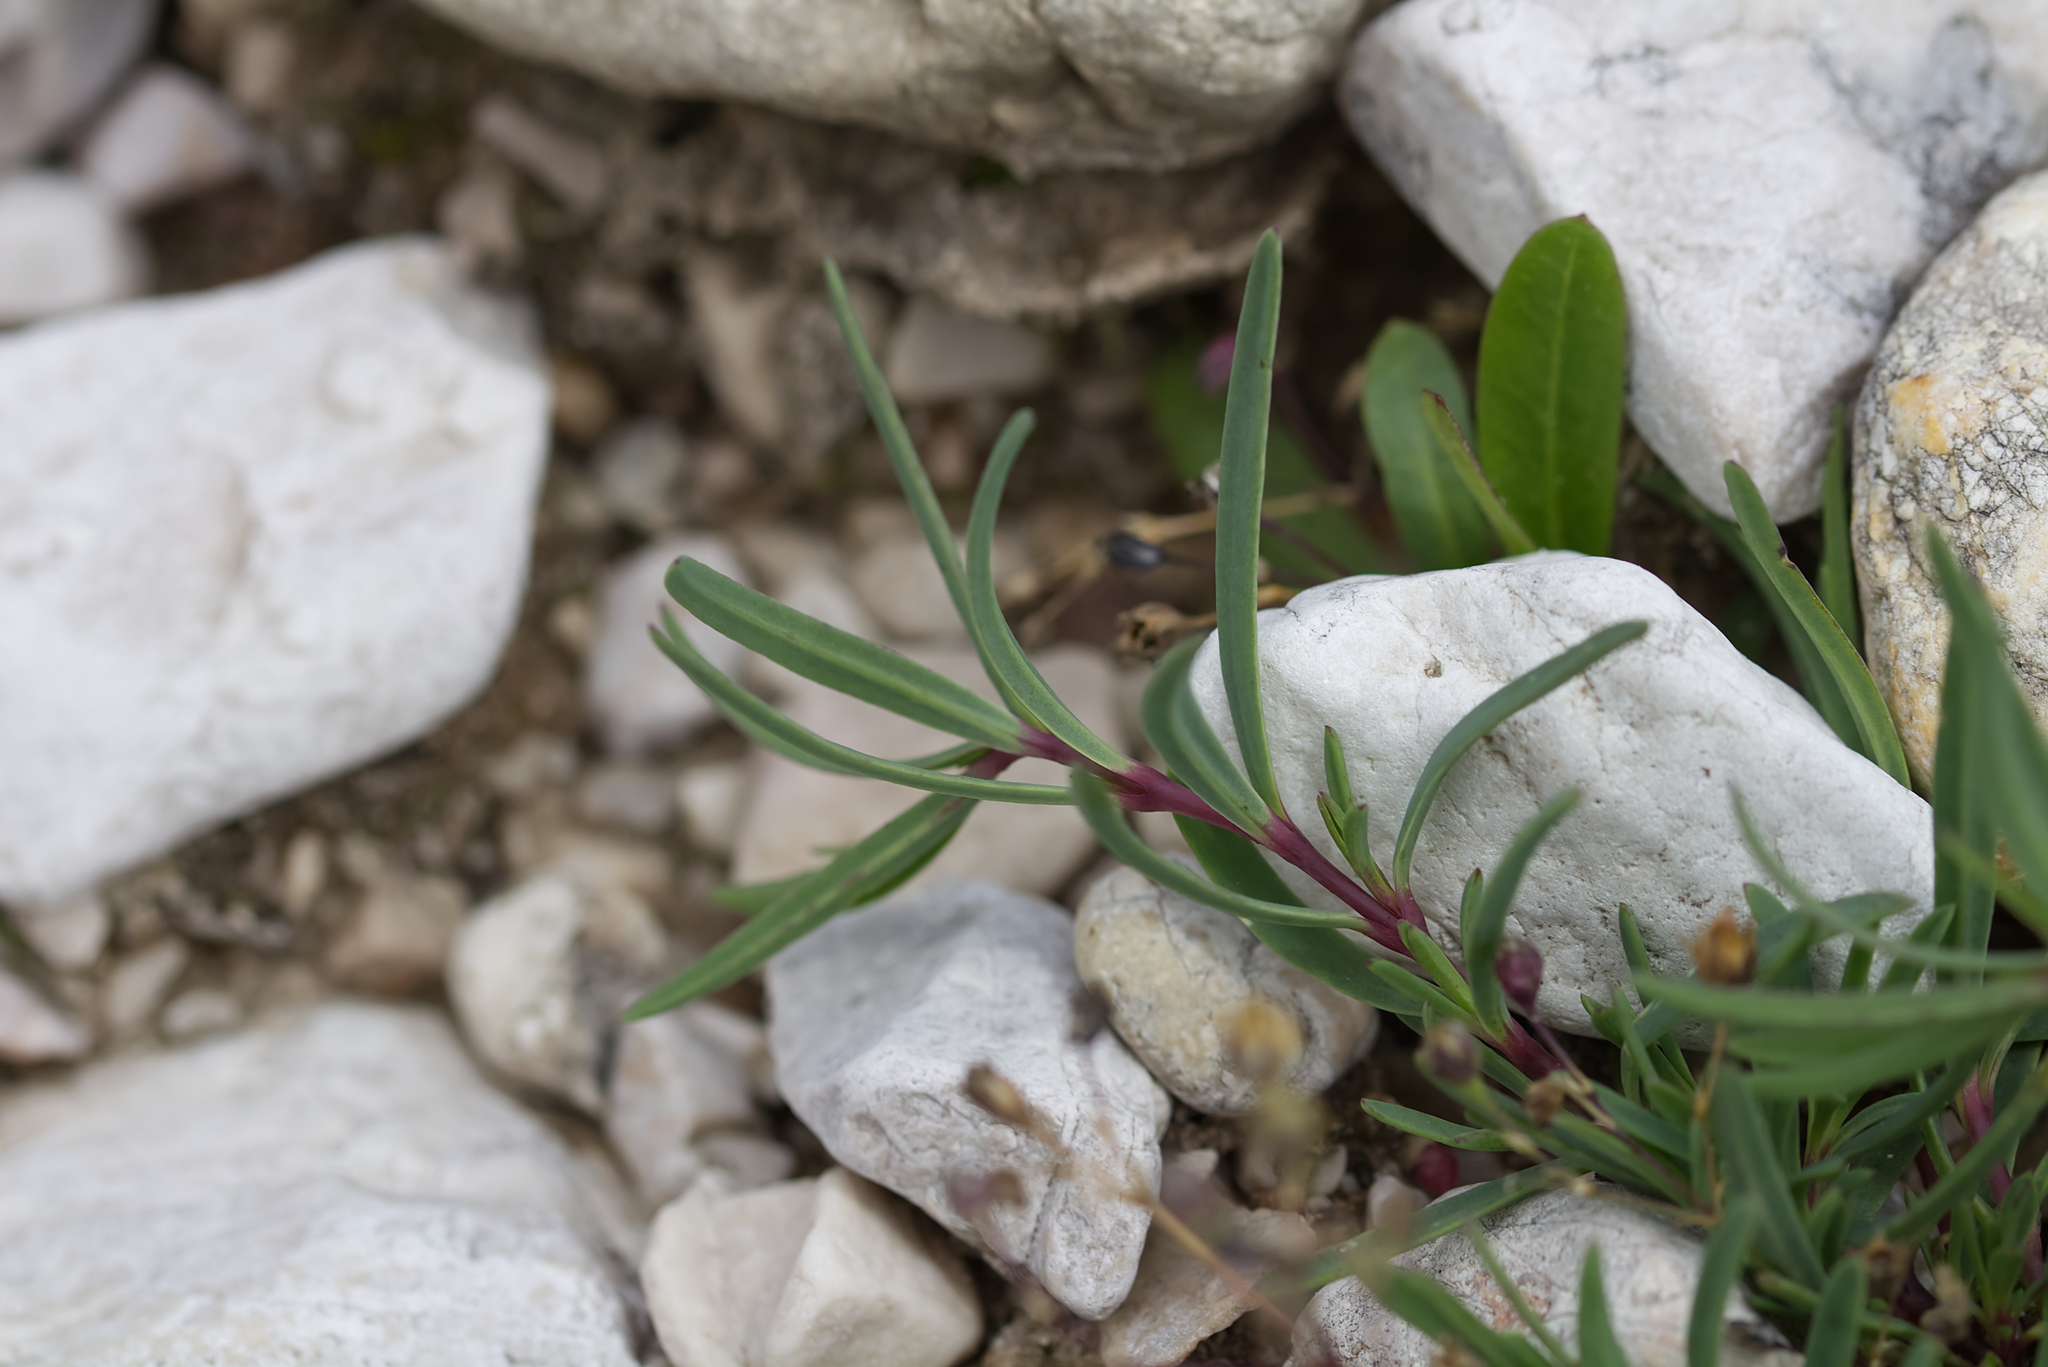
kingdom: Plantae
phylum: Tracheophyta
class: Magnoliopsida
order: Caryophyllales
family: Caryophyllaceae
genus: Gypsophila
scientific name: Gypsophila repens
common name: Creeping baby's-breath
